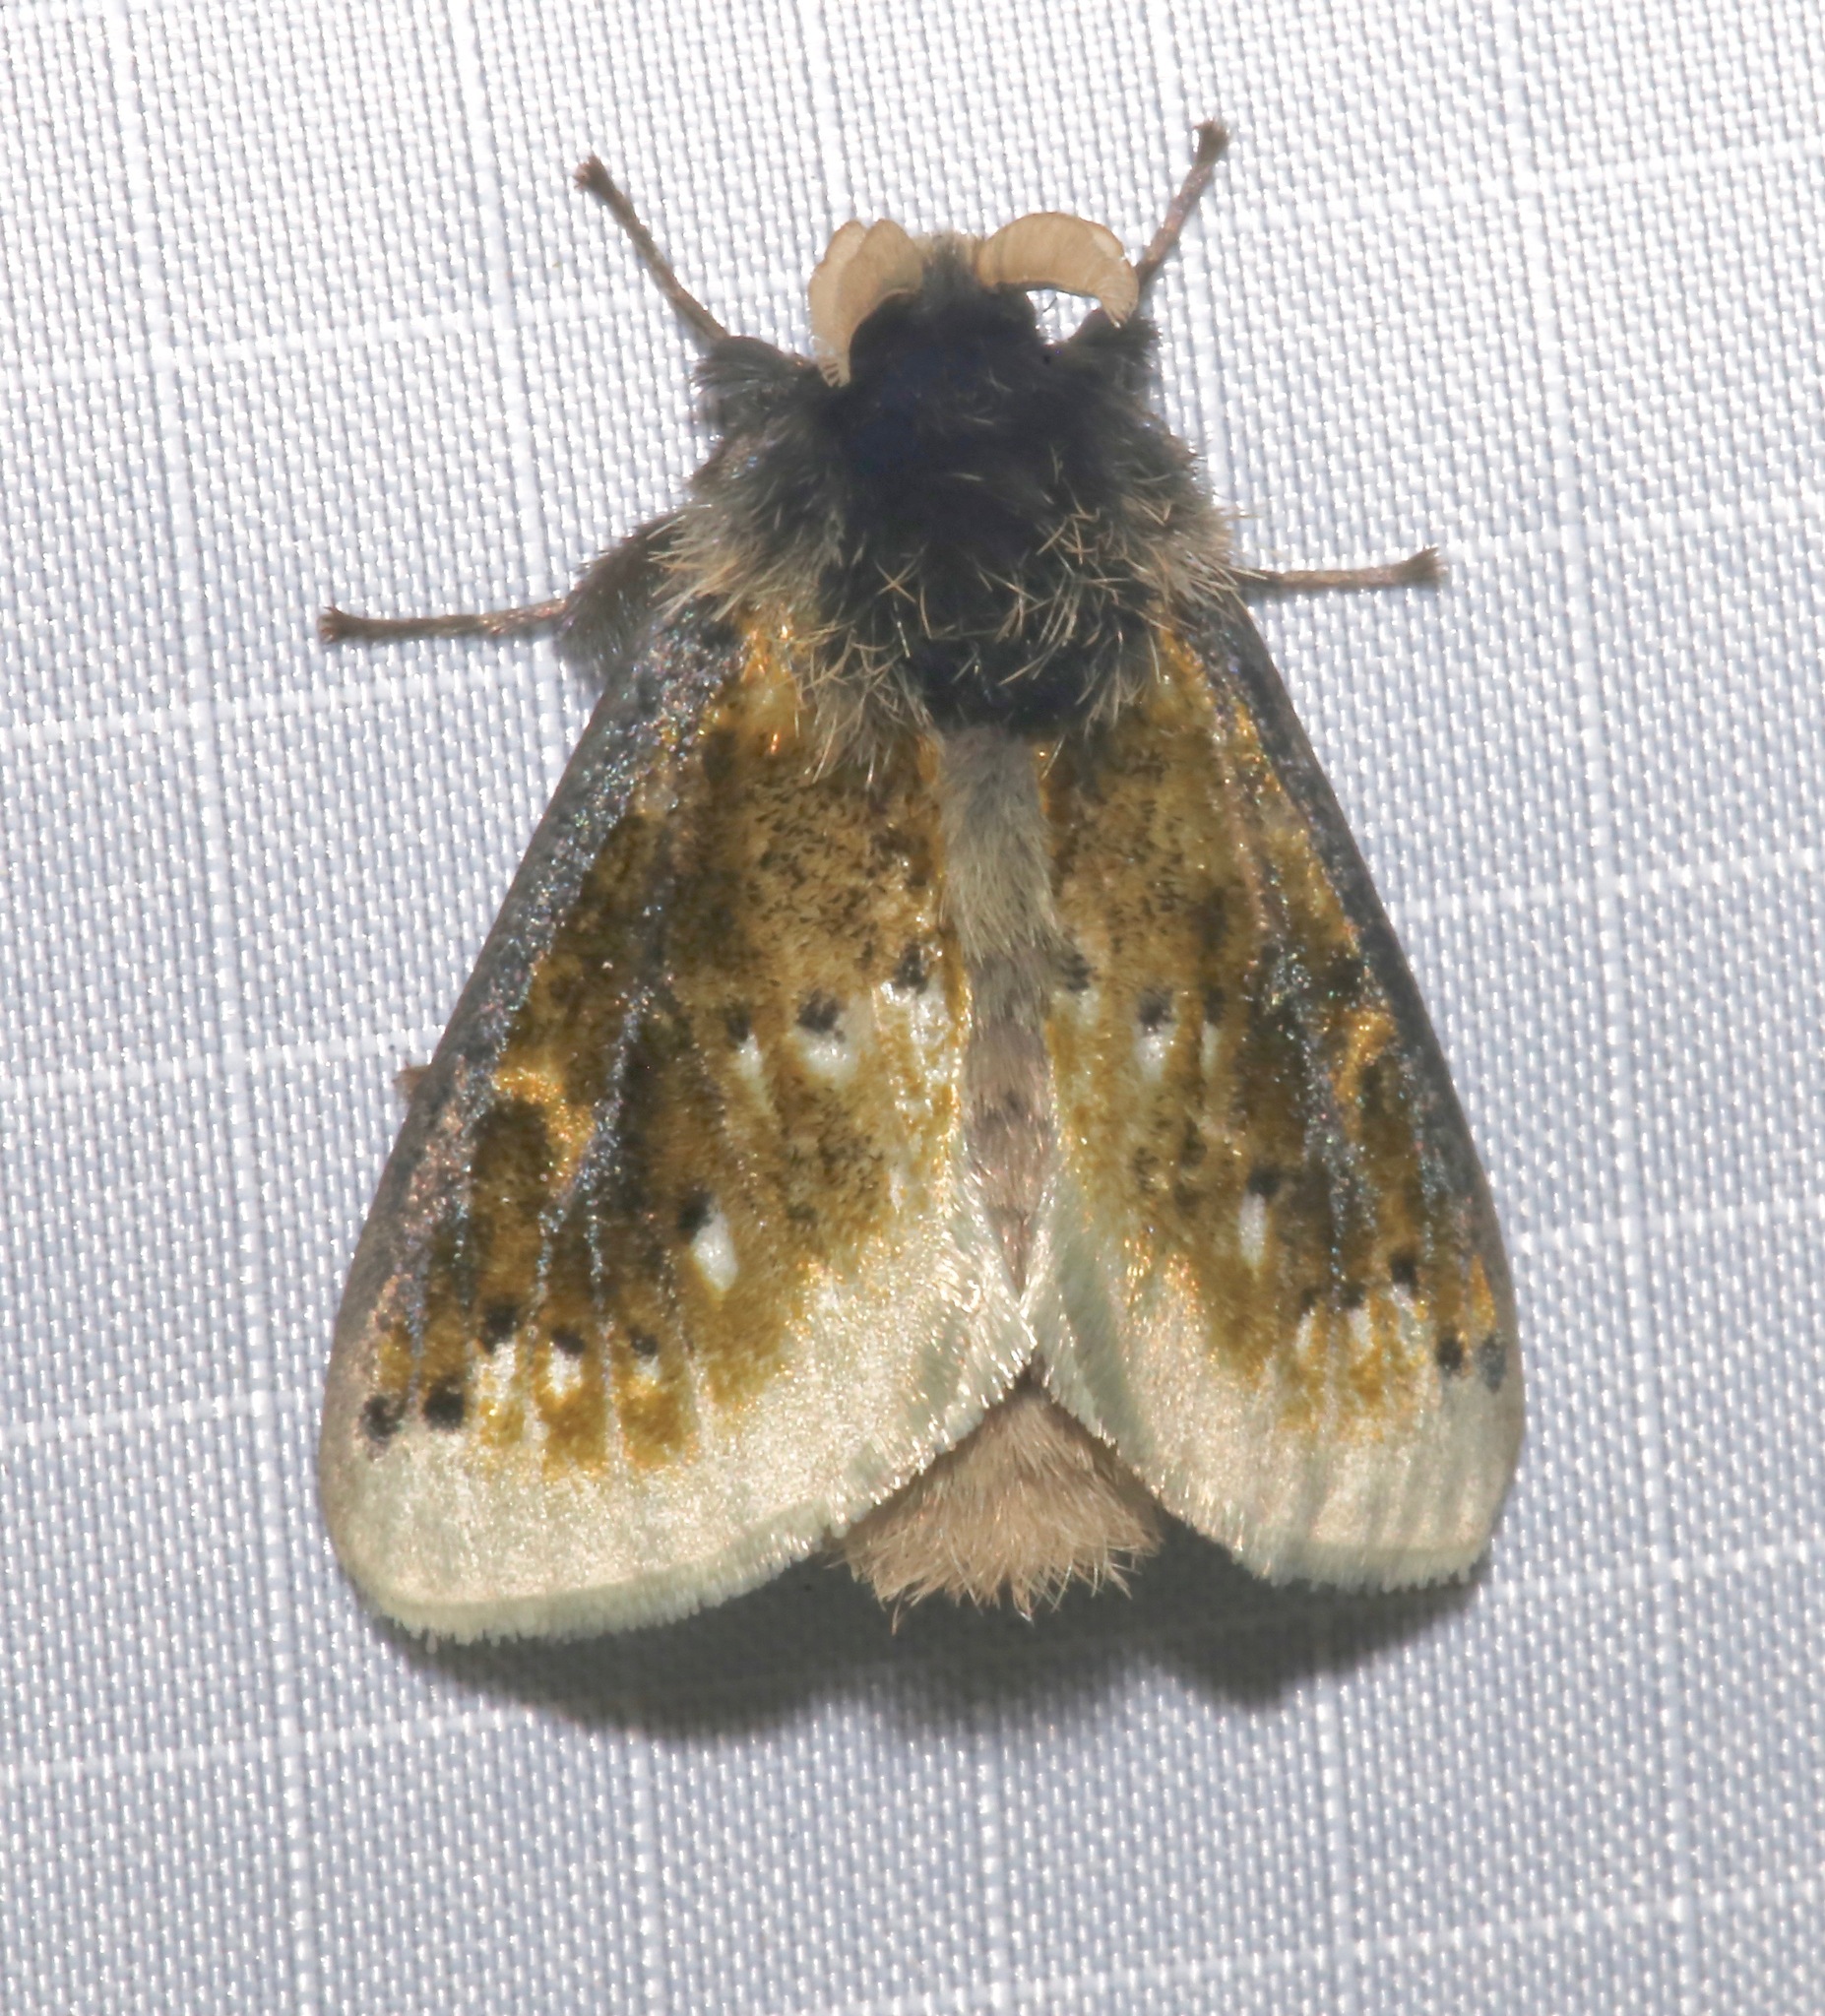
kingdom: Animalia
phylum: Arthropoda
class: Insecta
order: Lepidoptera
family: Megalopygidae
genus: Macara
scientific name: Macara alydda
